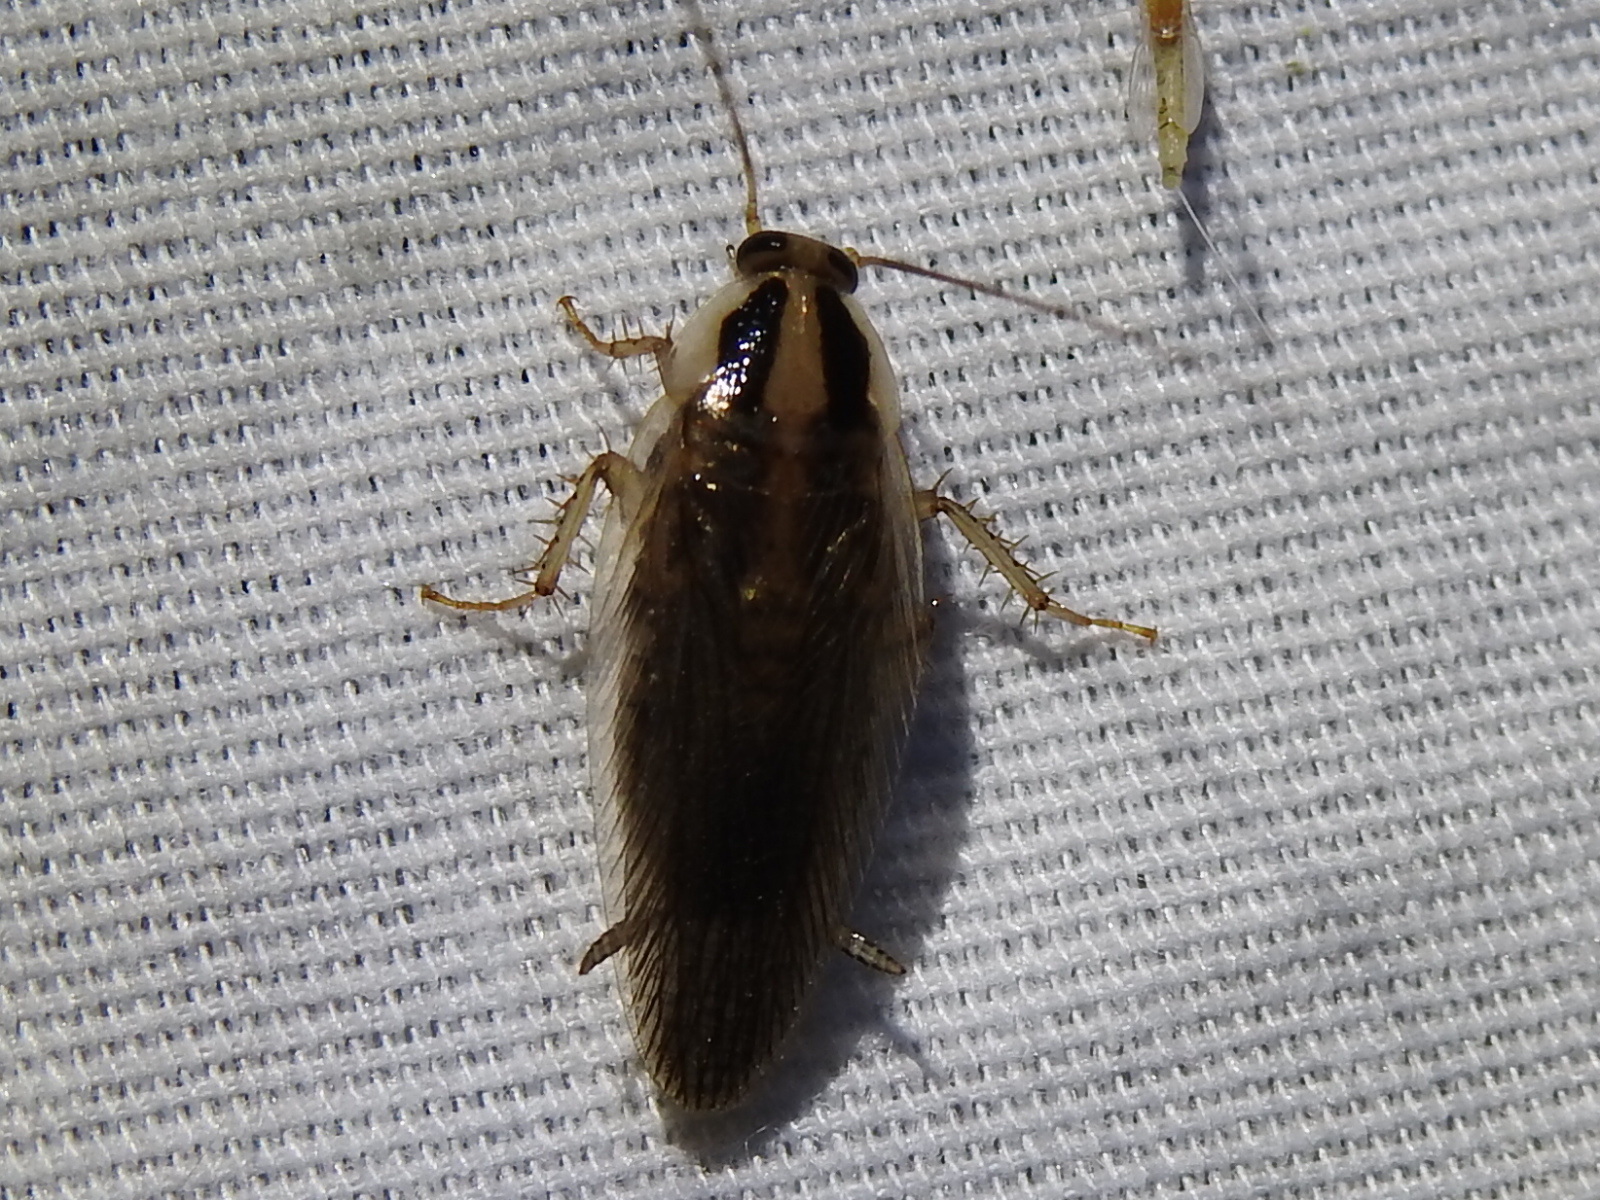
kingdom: Animalia
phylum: Arthropoda
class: Insecta
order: Blattodea
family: Ectobiidae
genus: Blattella
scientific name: Blattella vaga
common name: Field cockroach
